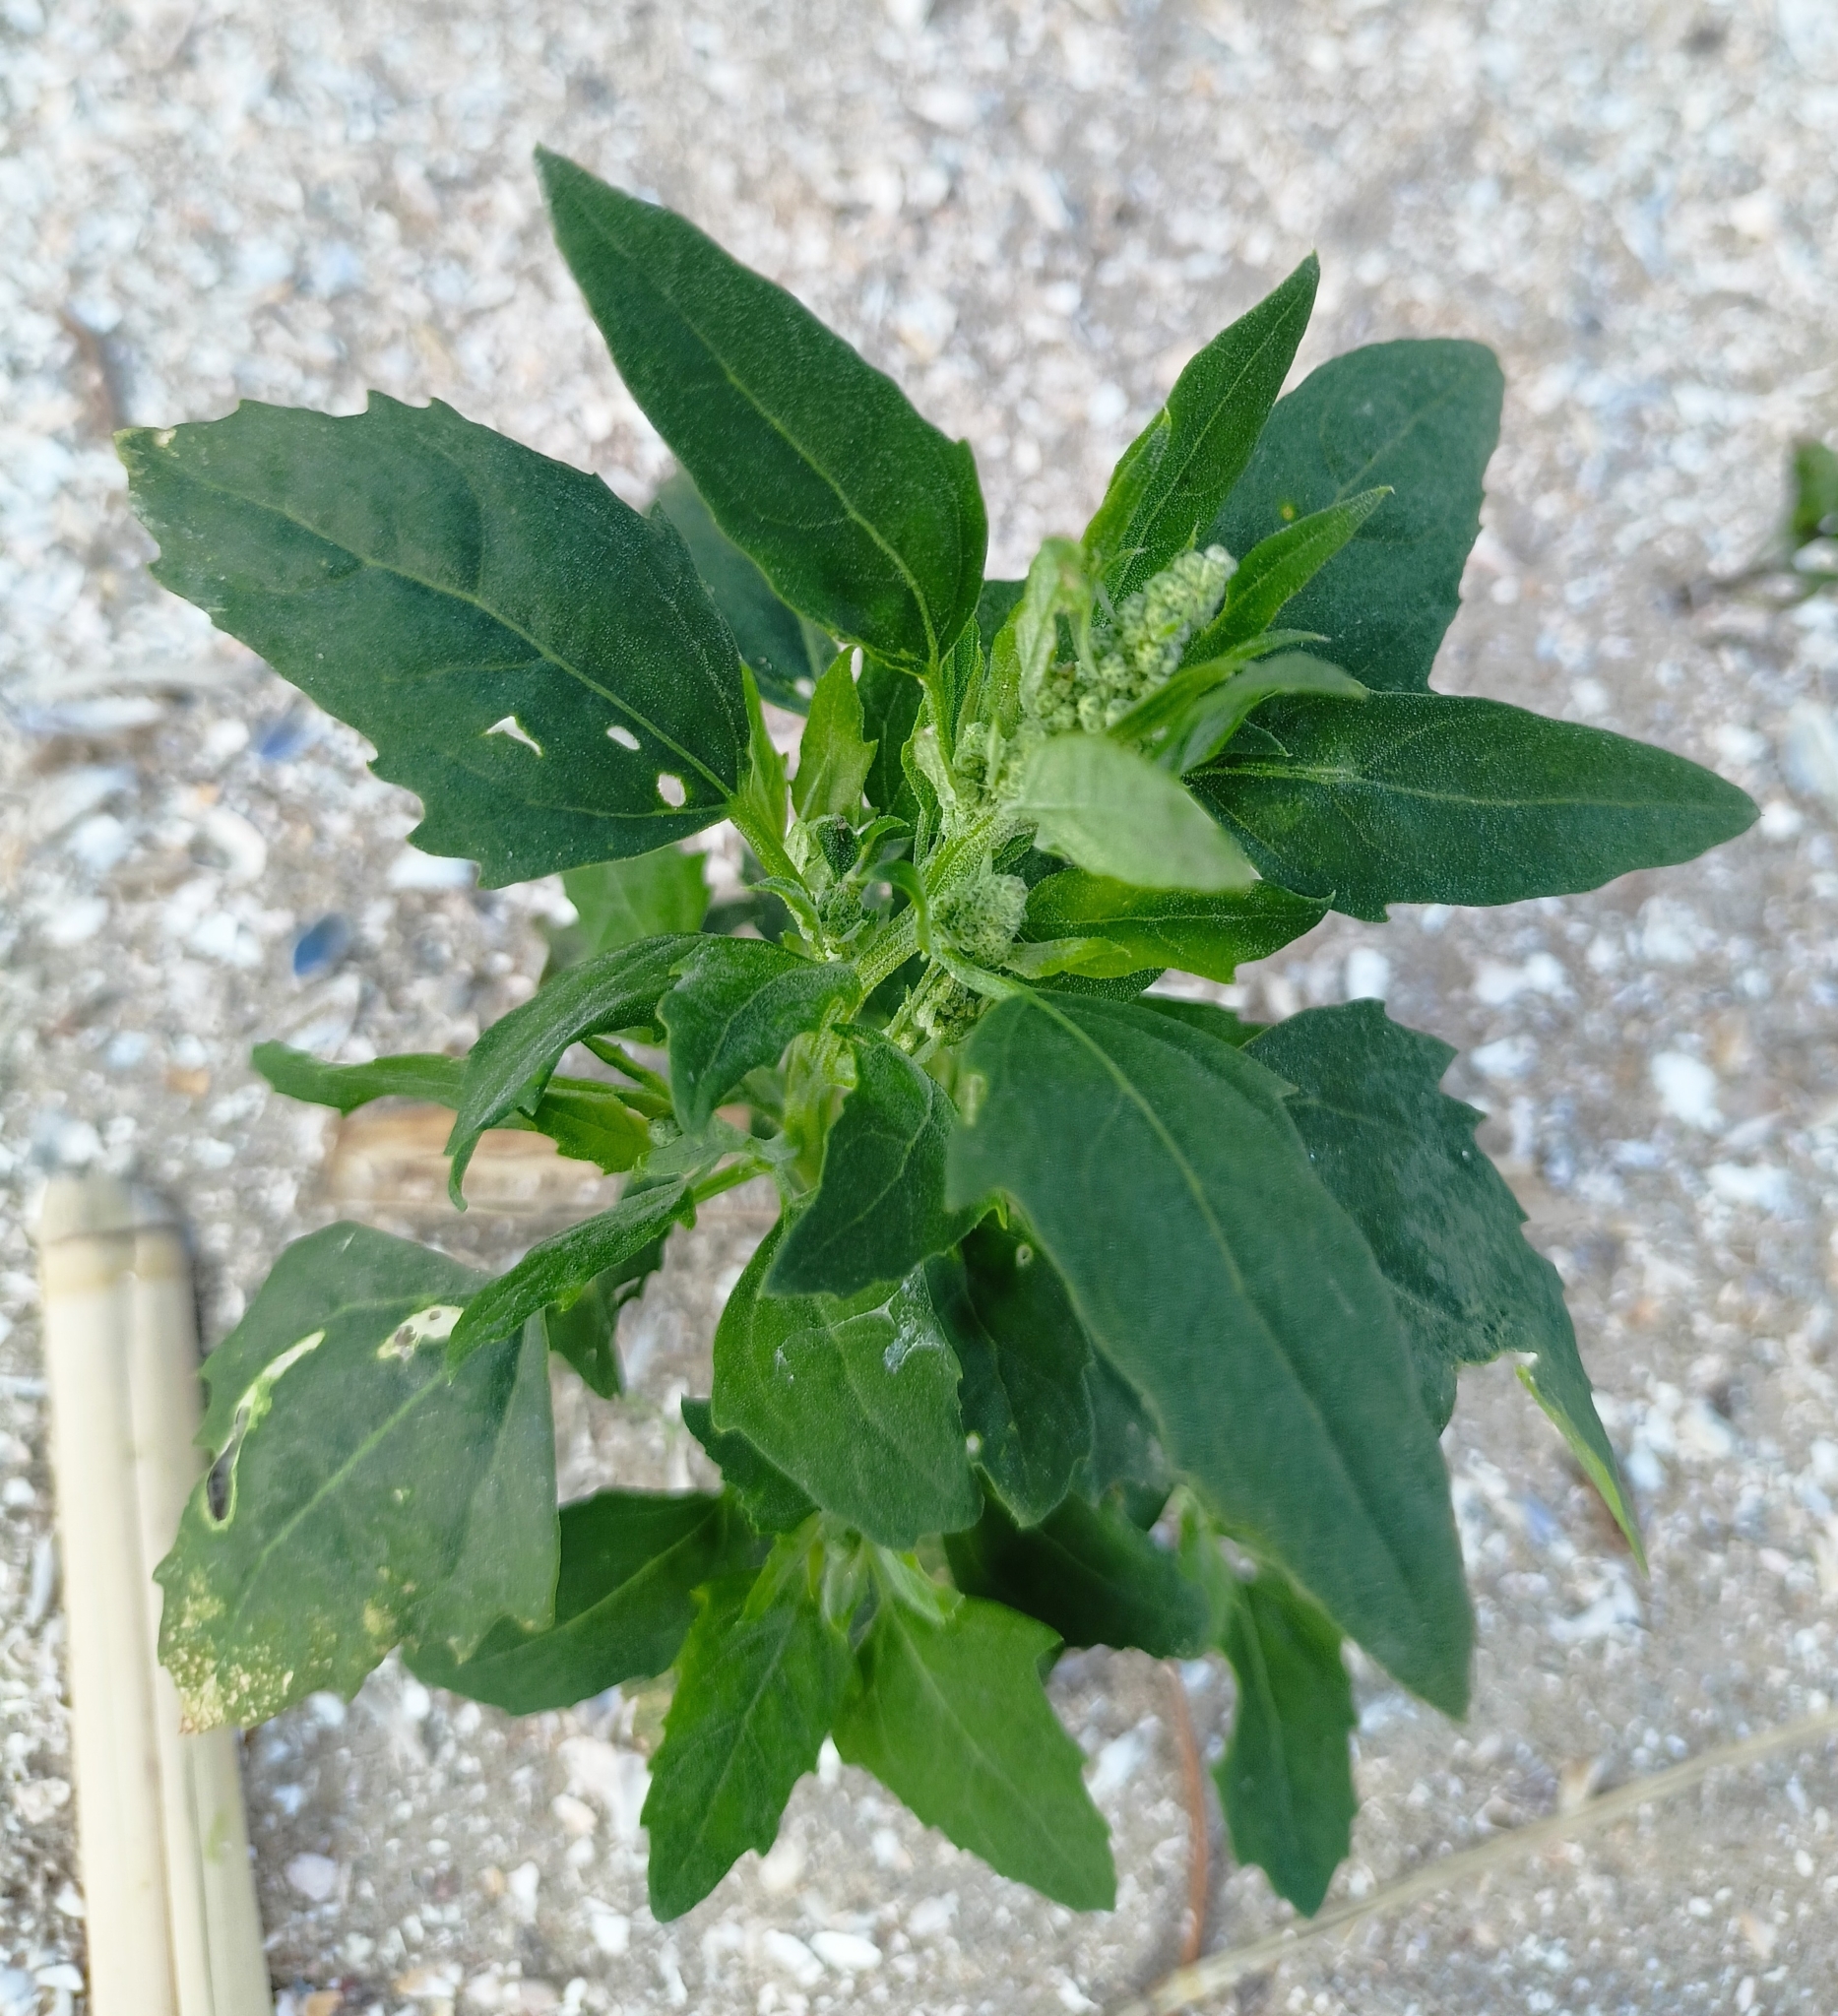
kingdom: Plantae
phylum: Tracheophyta
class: Magnoliopsida
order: Caryophyllales
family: Amaranthaceae
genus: Chenopodium
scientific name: Chenopodium album
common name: Fat-hen
